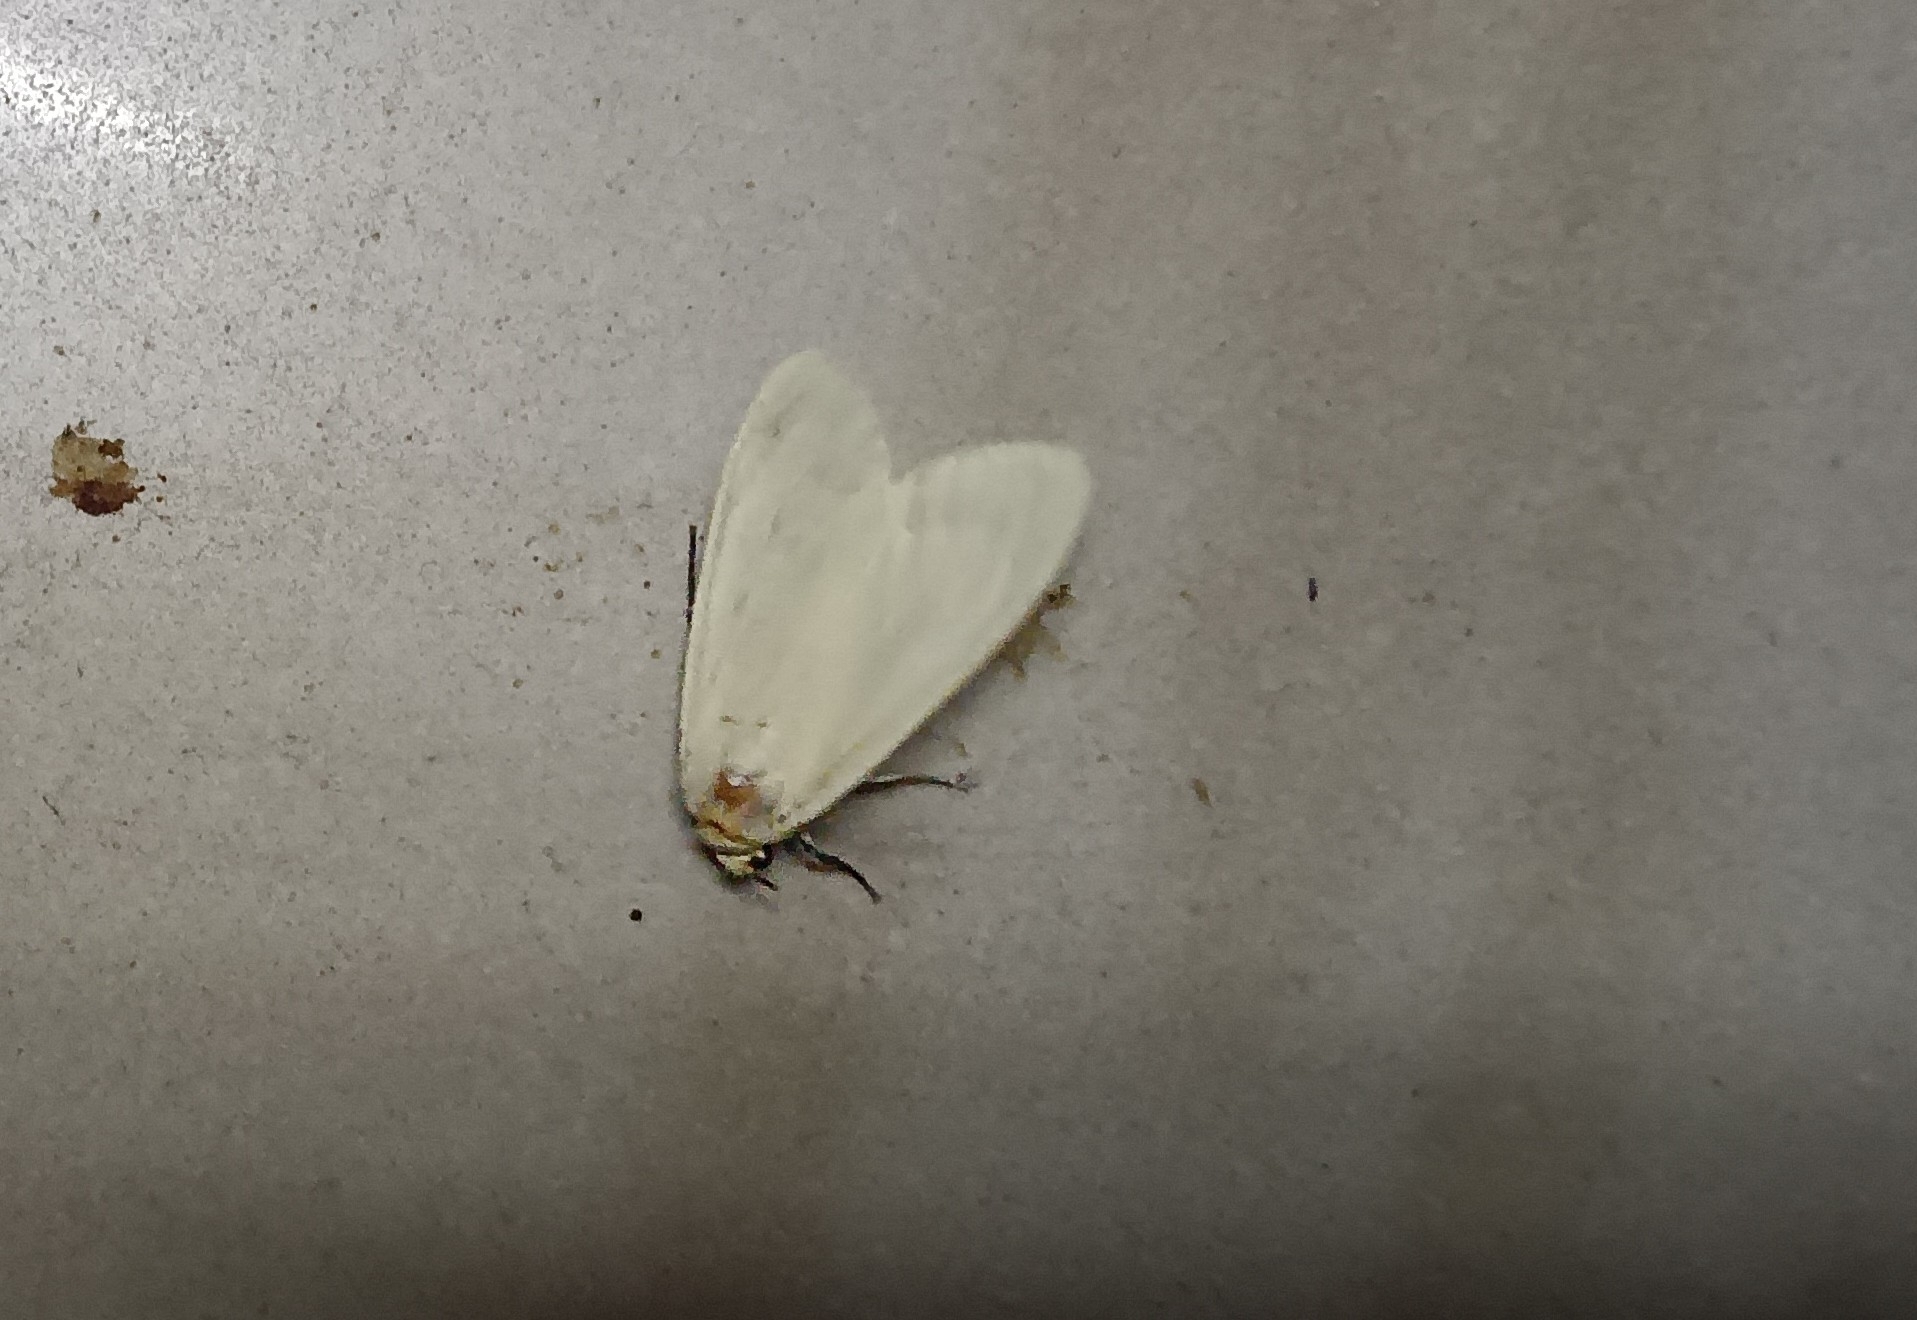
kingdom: Animalia
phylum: Arthropoda
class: Insecta
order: Lepidoptera
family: Erebidae
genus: Pareuchaetes
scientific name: Pareuchaetes pseudoinsulata
